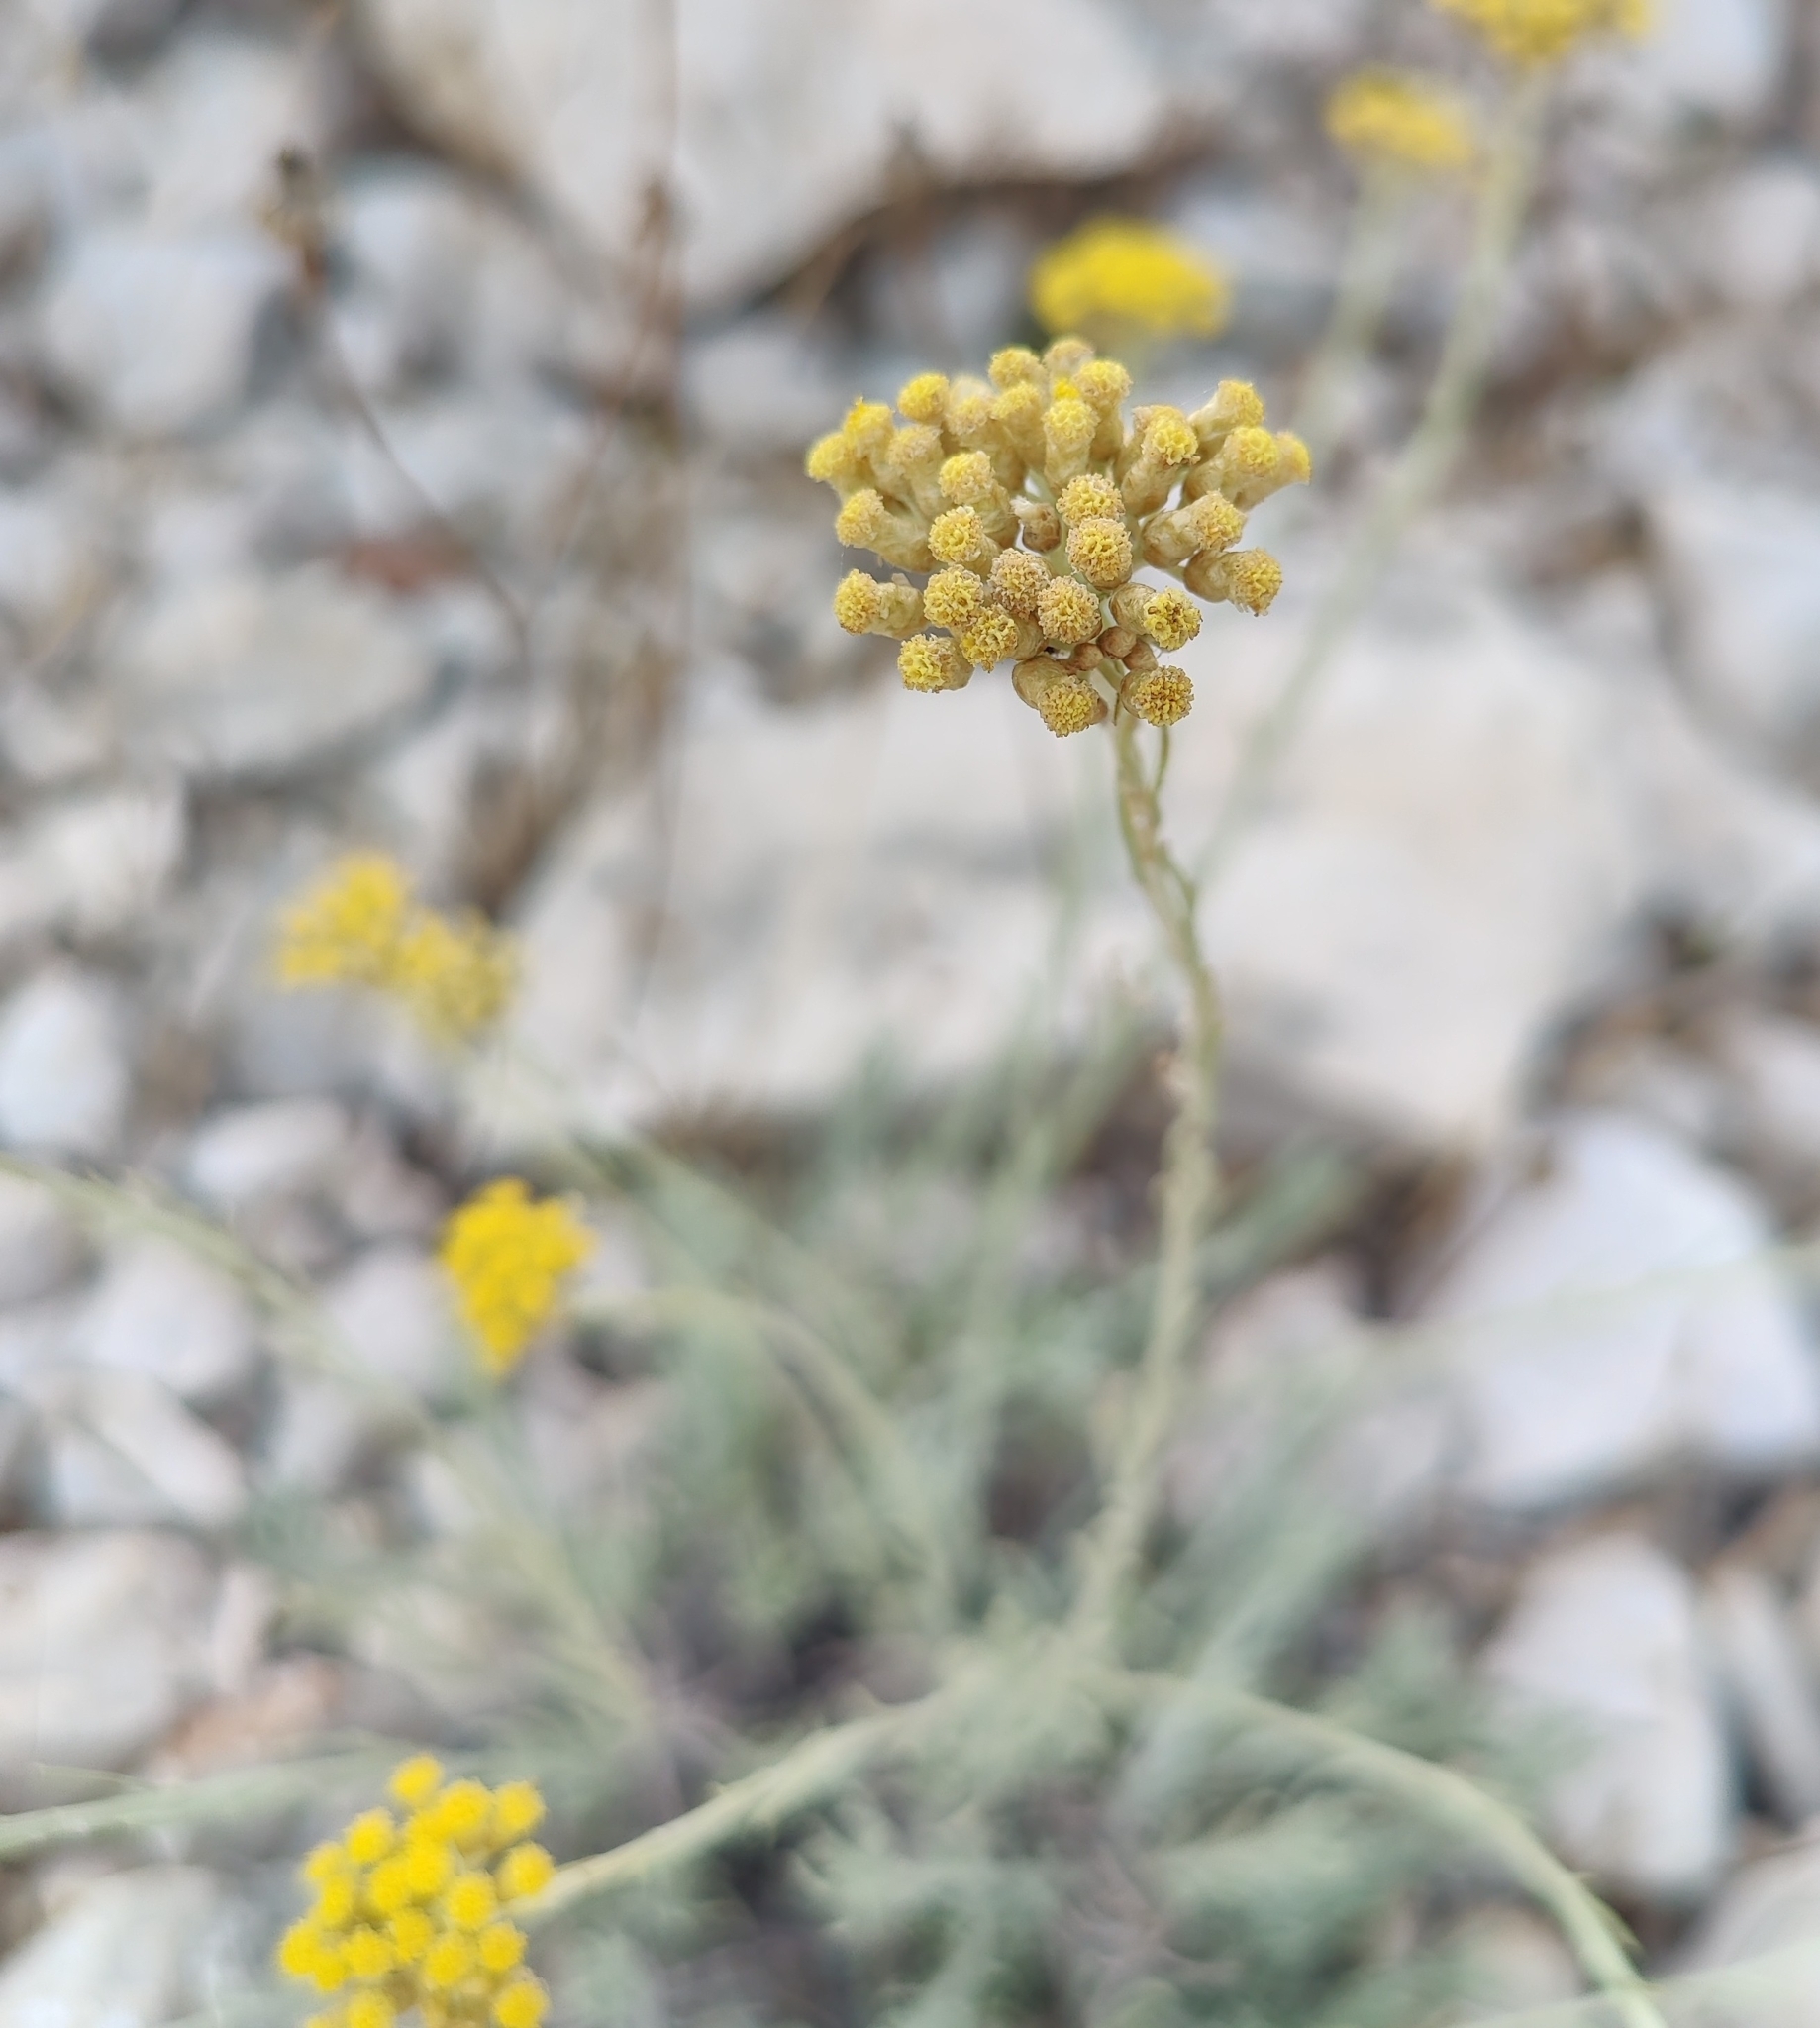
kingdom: Plantae
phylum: Tracheophyta
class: Magnoliopsida
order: Asterales
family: Asteraceae
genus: Helichrysum
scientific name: Helichrysum italicum
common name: Curryplant
